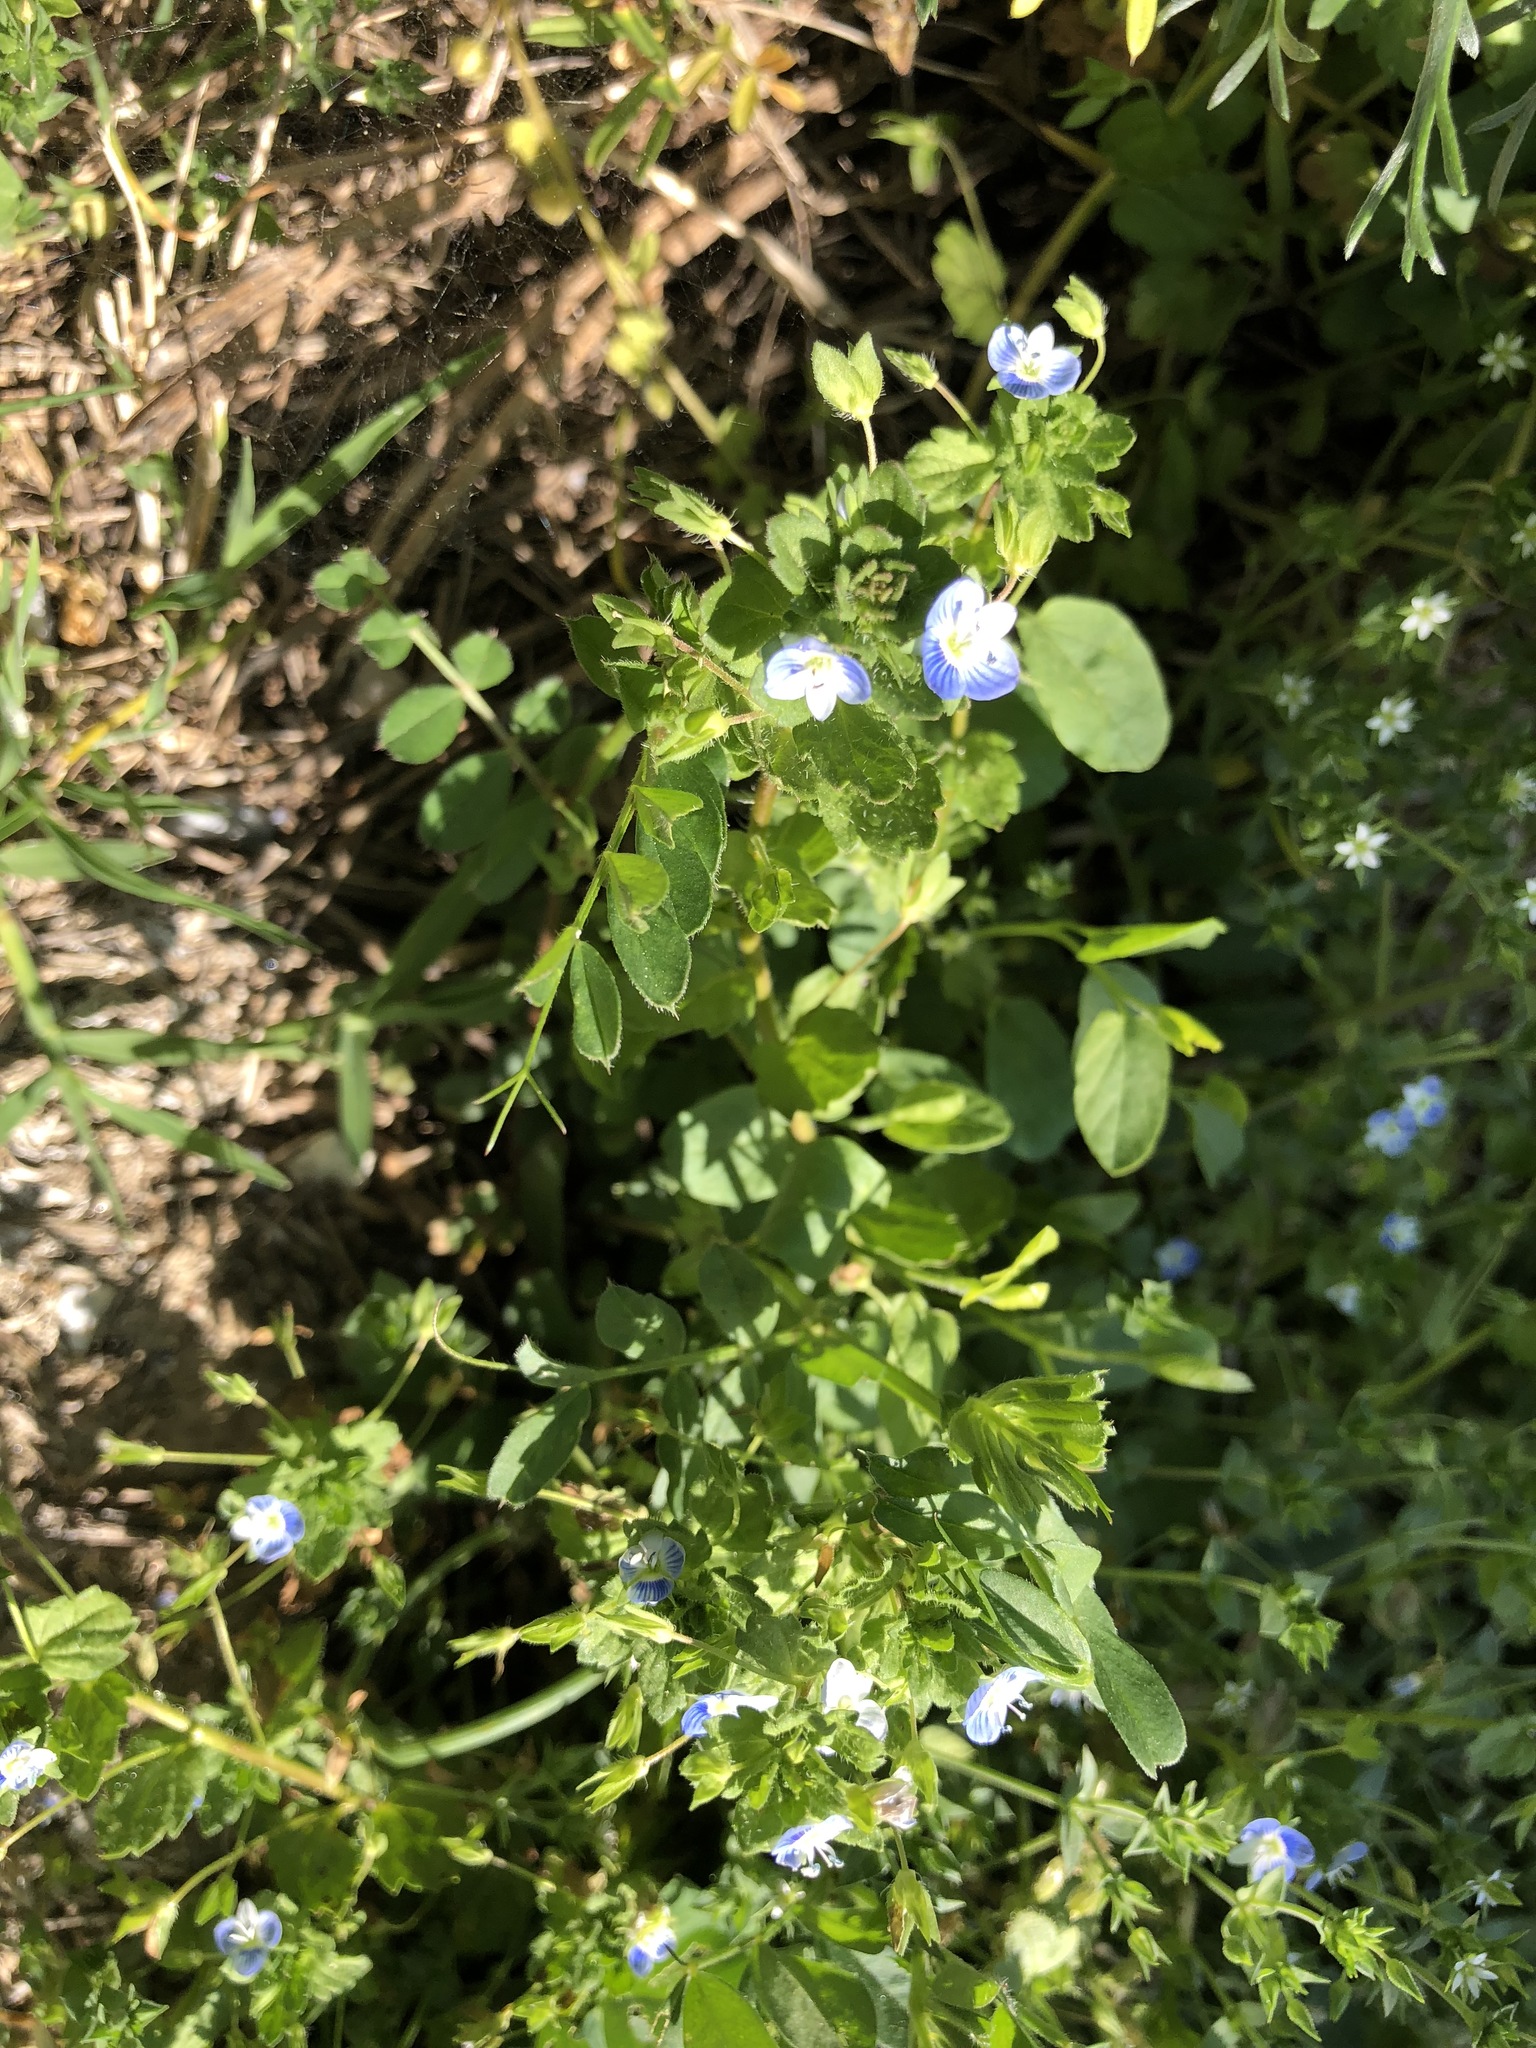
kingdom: Plantae
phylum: Tracheophyta
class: Magnoliopsida
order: Lamiales
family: Plantaginaceae
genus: Veronica
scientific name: Veronica persica
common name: Common field-speedwell
